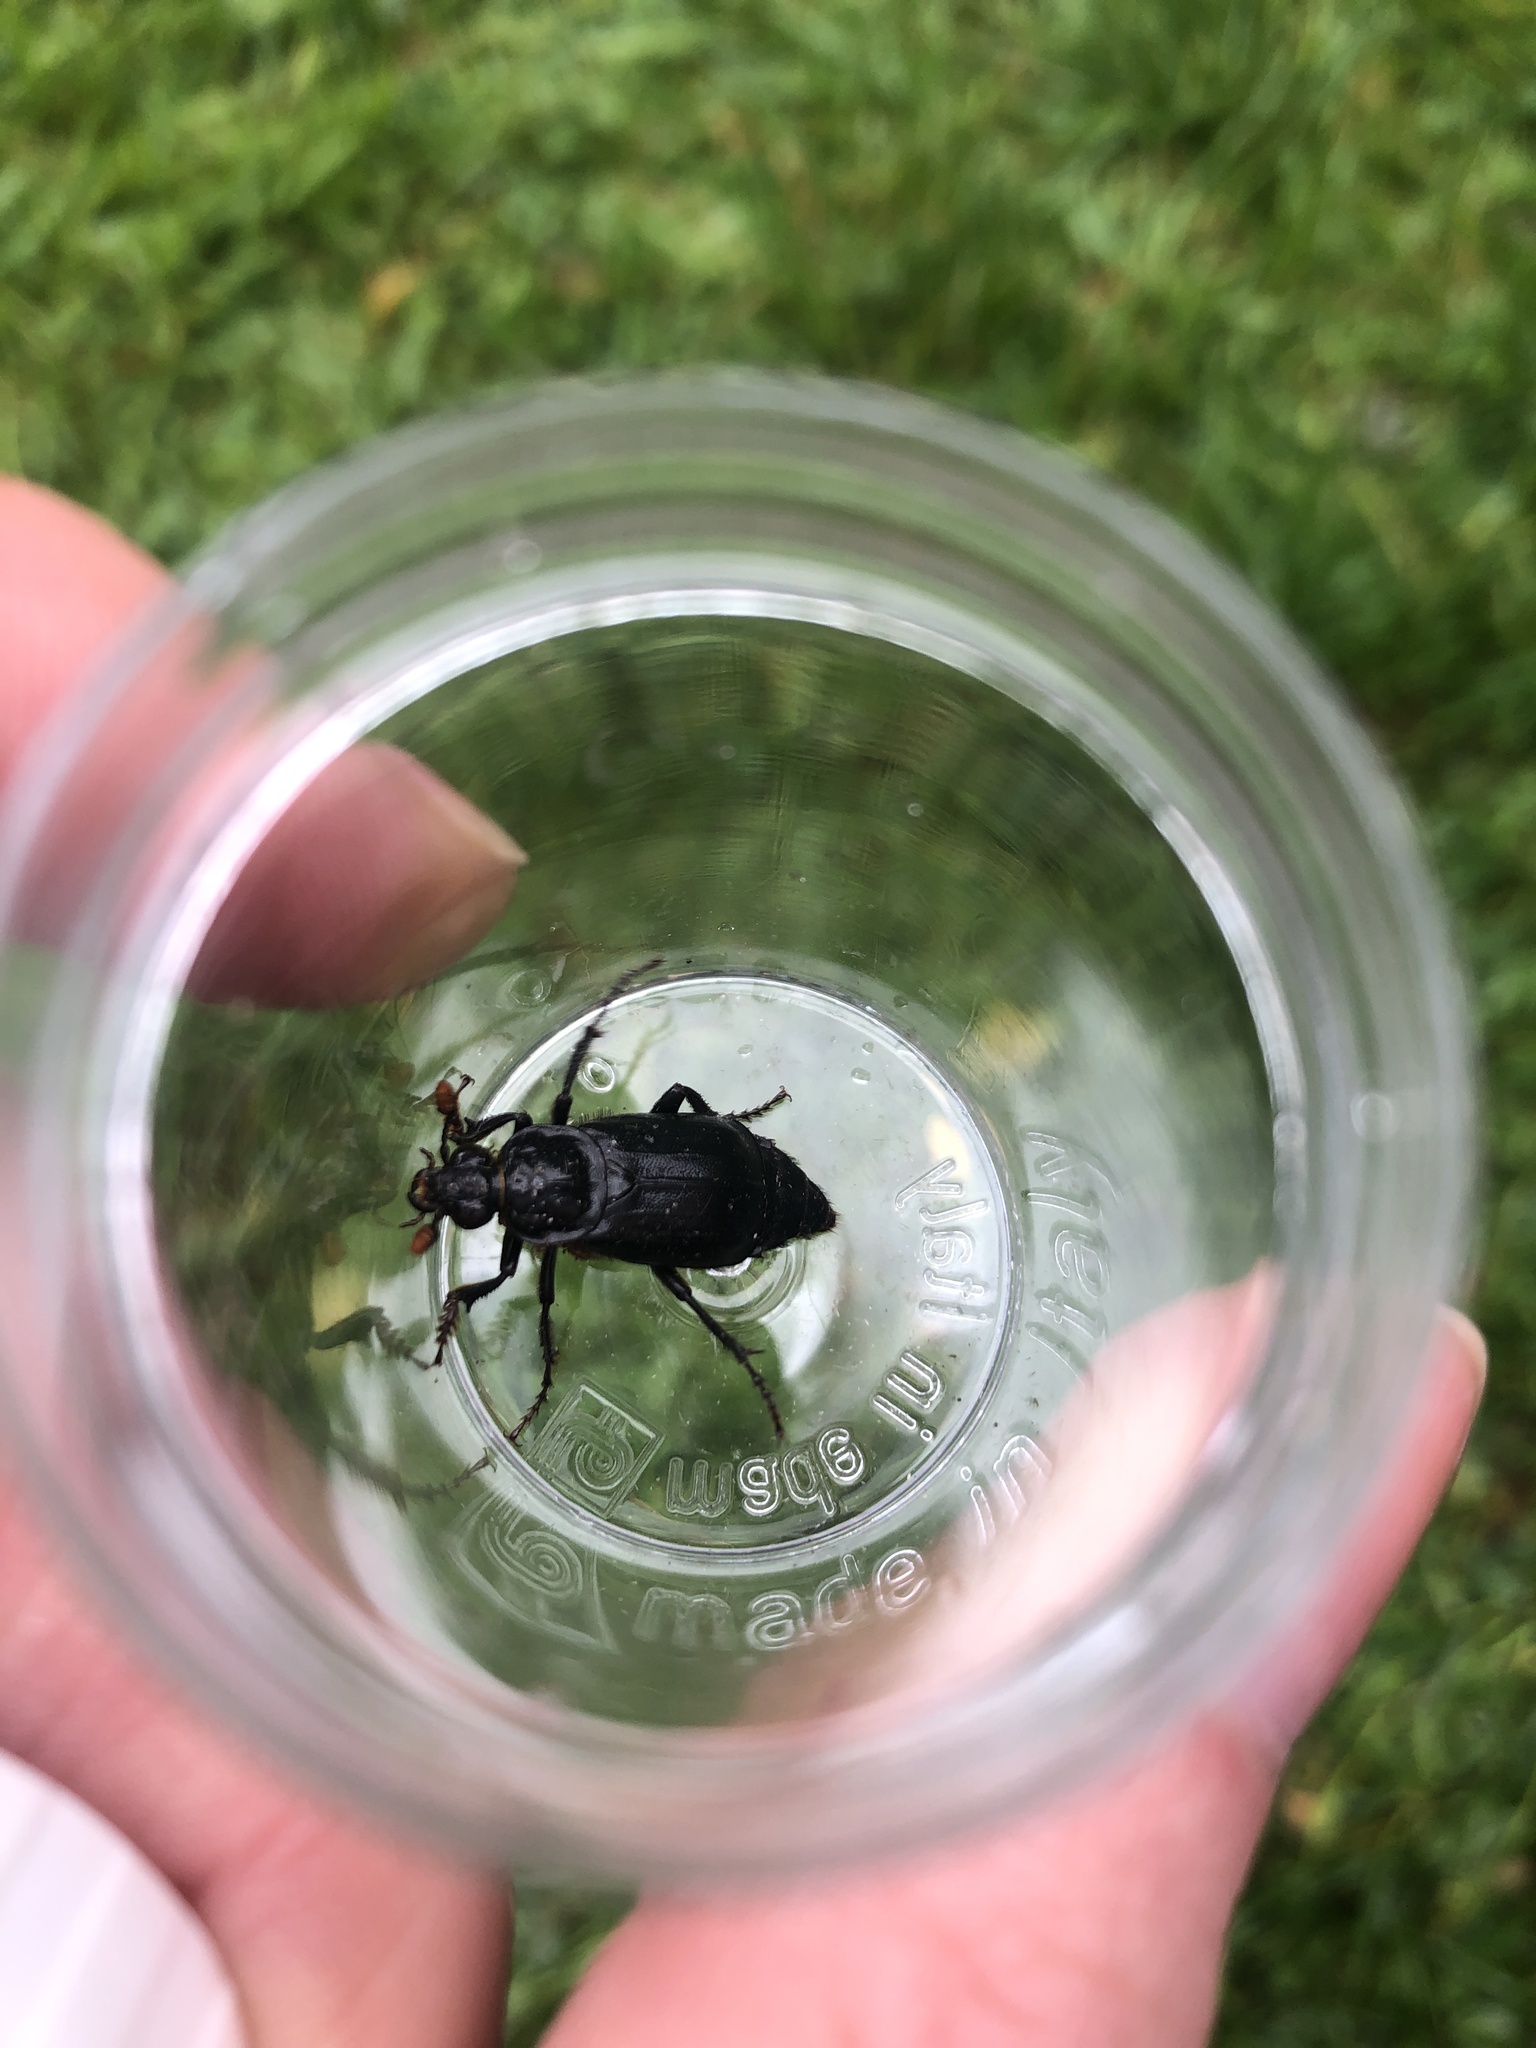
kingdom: Animalia
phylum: Arthropoda
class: Insecta
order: Coleoptera
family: Staphylinidae
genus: Nicrophorus
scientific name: Nicrophorus humator
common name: Black sexton beetle
